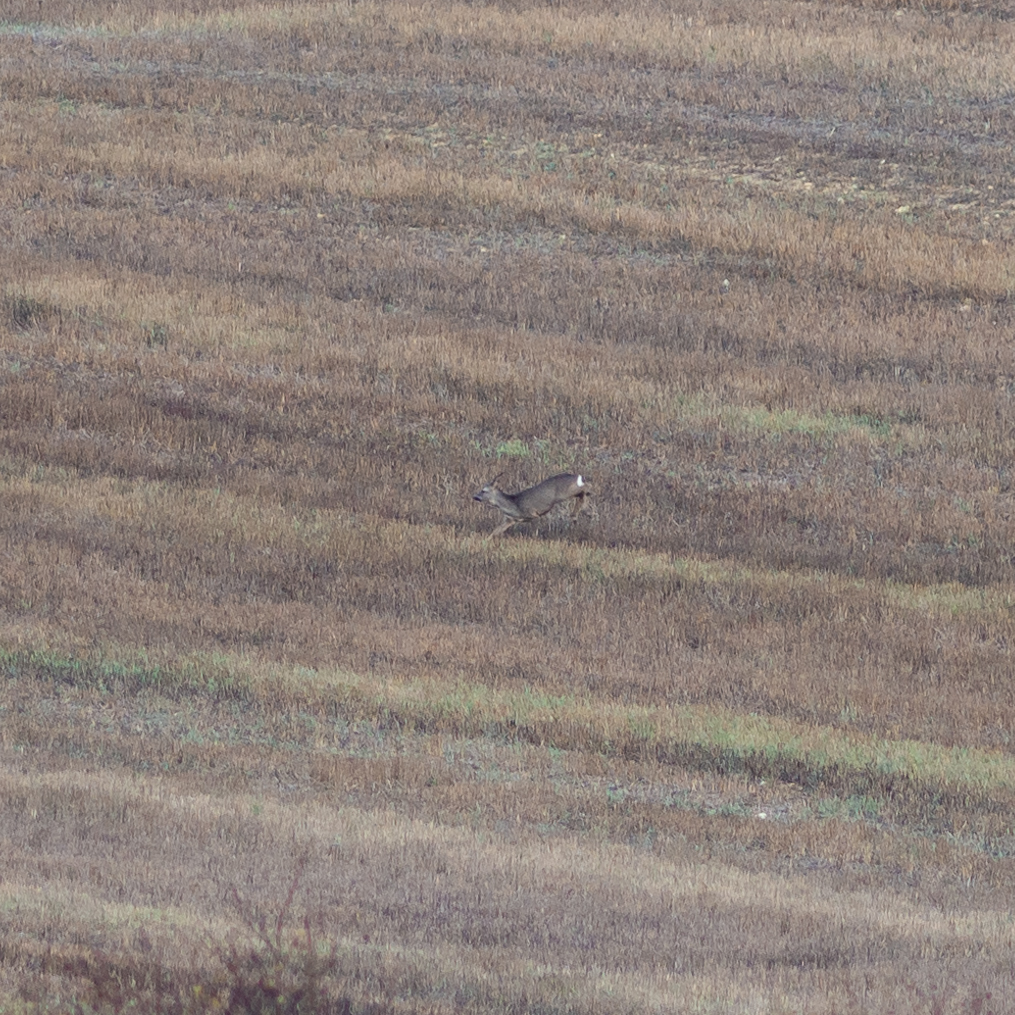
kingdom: Animalia
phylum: Chordata
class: Mammalia
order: Artiodactyla
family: Cervidae
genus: Capreolus
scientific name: Capreolus capreolus
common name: Western roe deer
